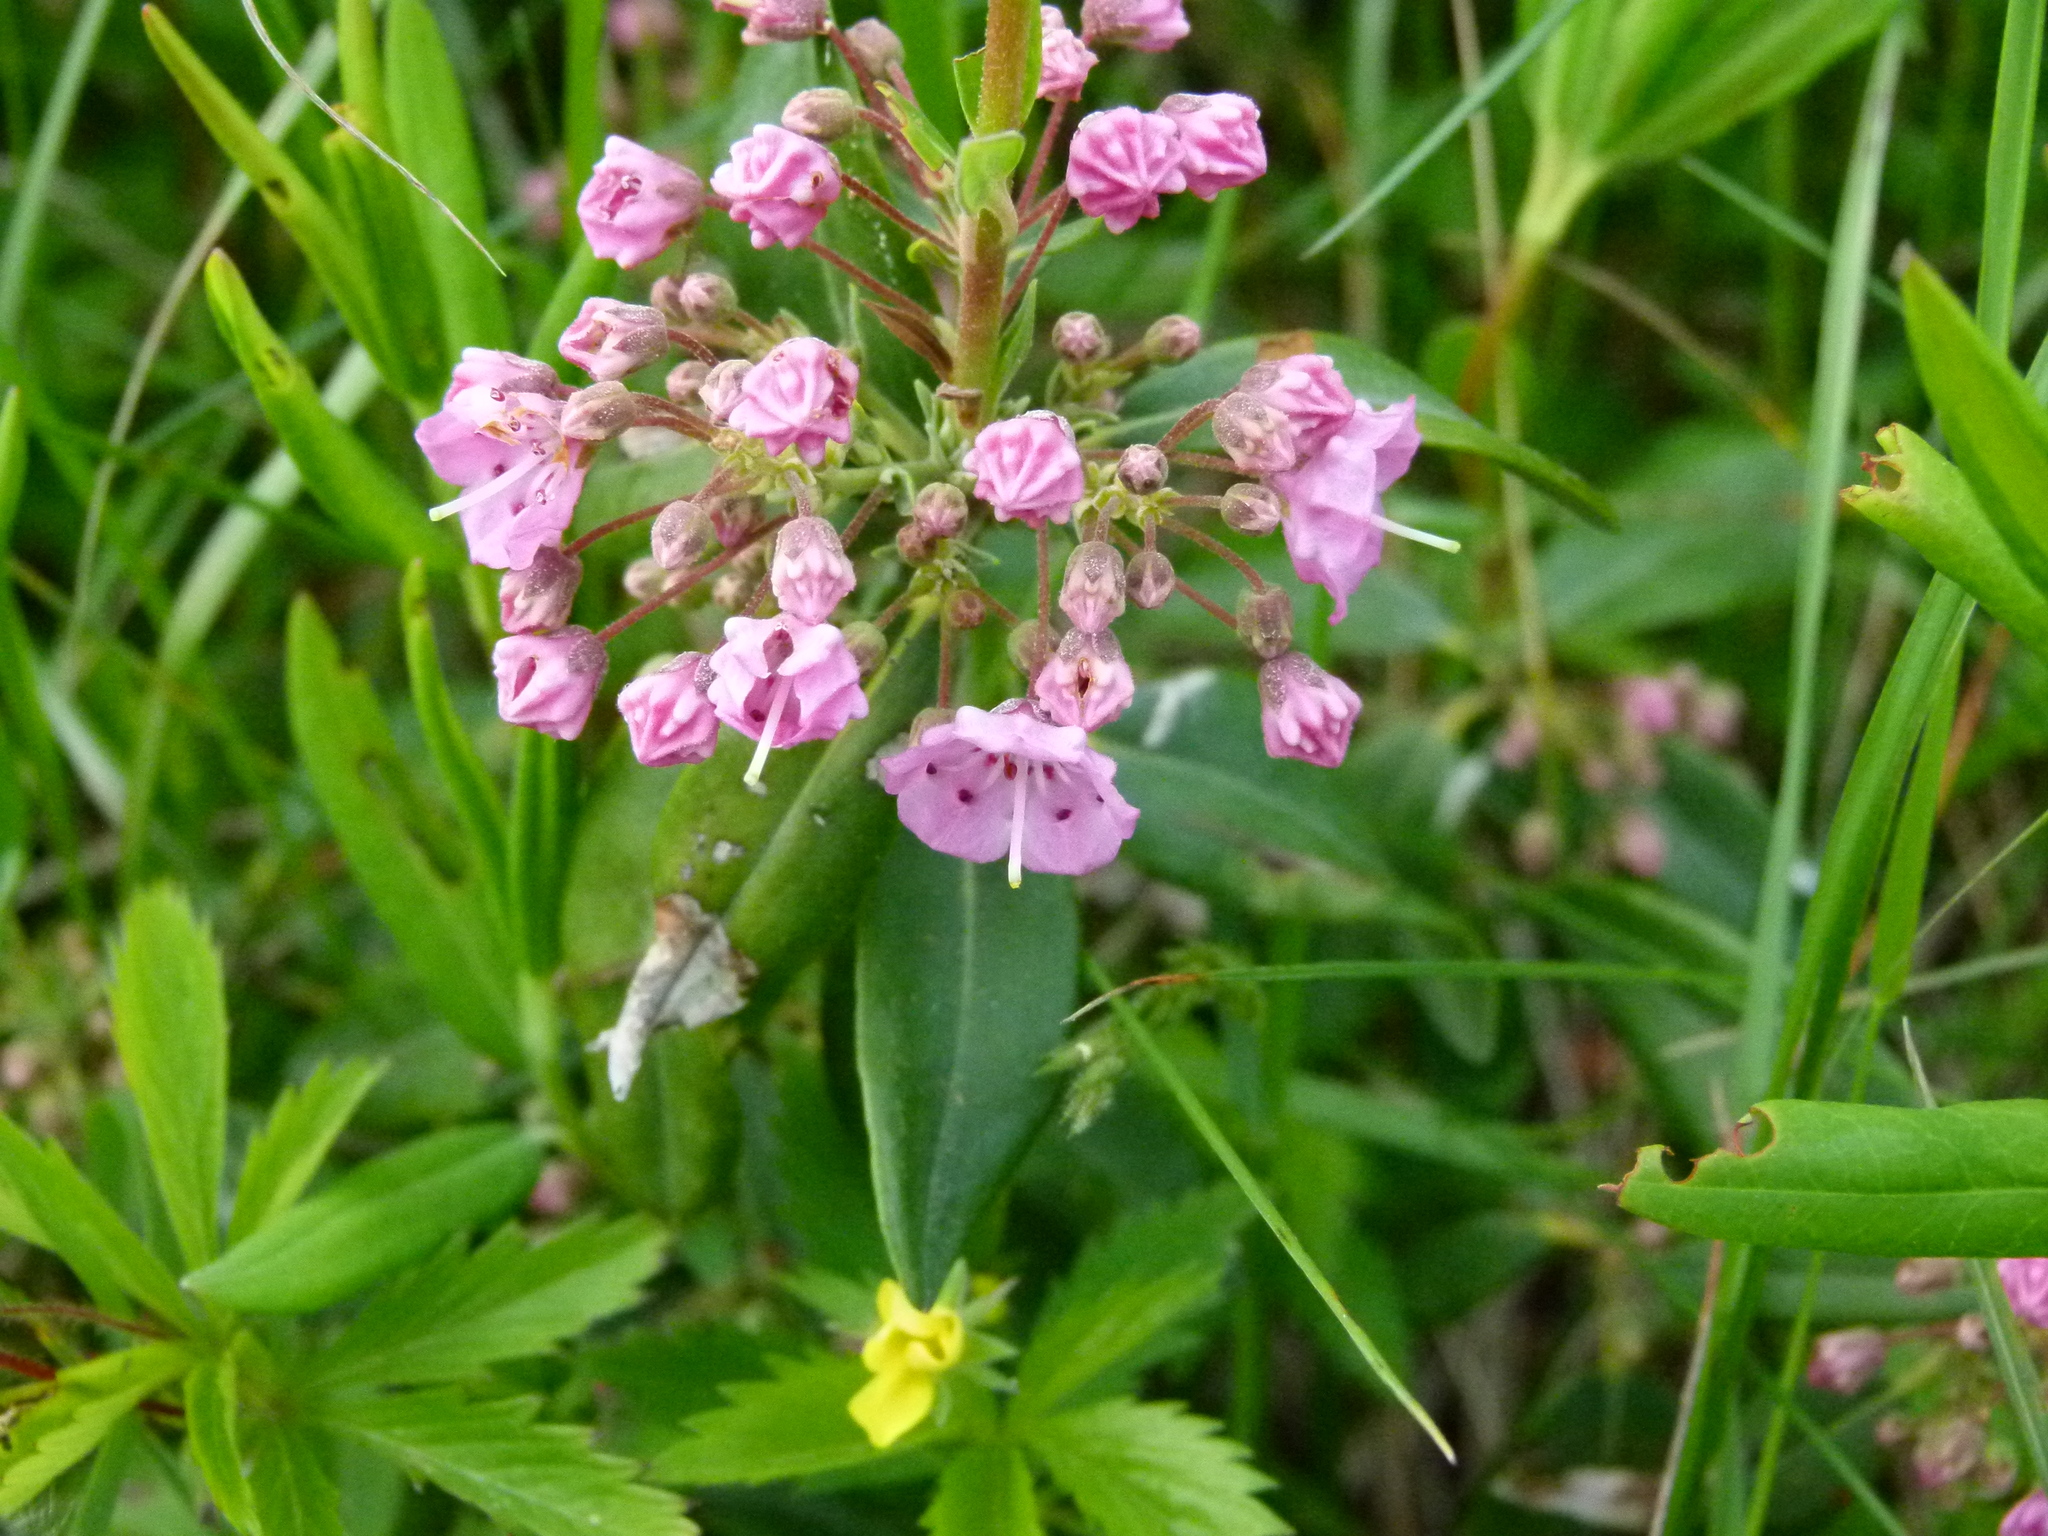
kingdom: Plantae
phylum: Tracheophyta
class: Magnoliopsida
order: Ericales
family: Ericaceae
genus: Kalmia
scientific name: Kalmia angustifolia
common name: Sheep-laurel
